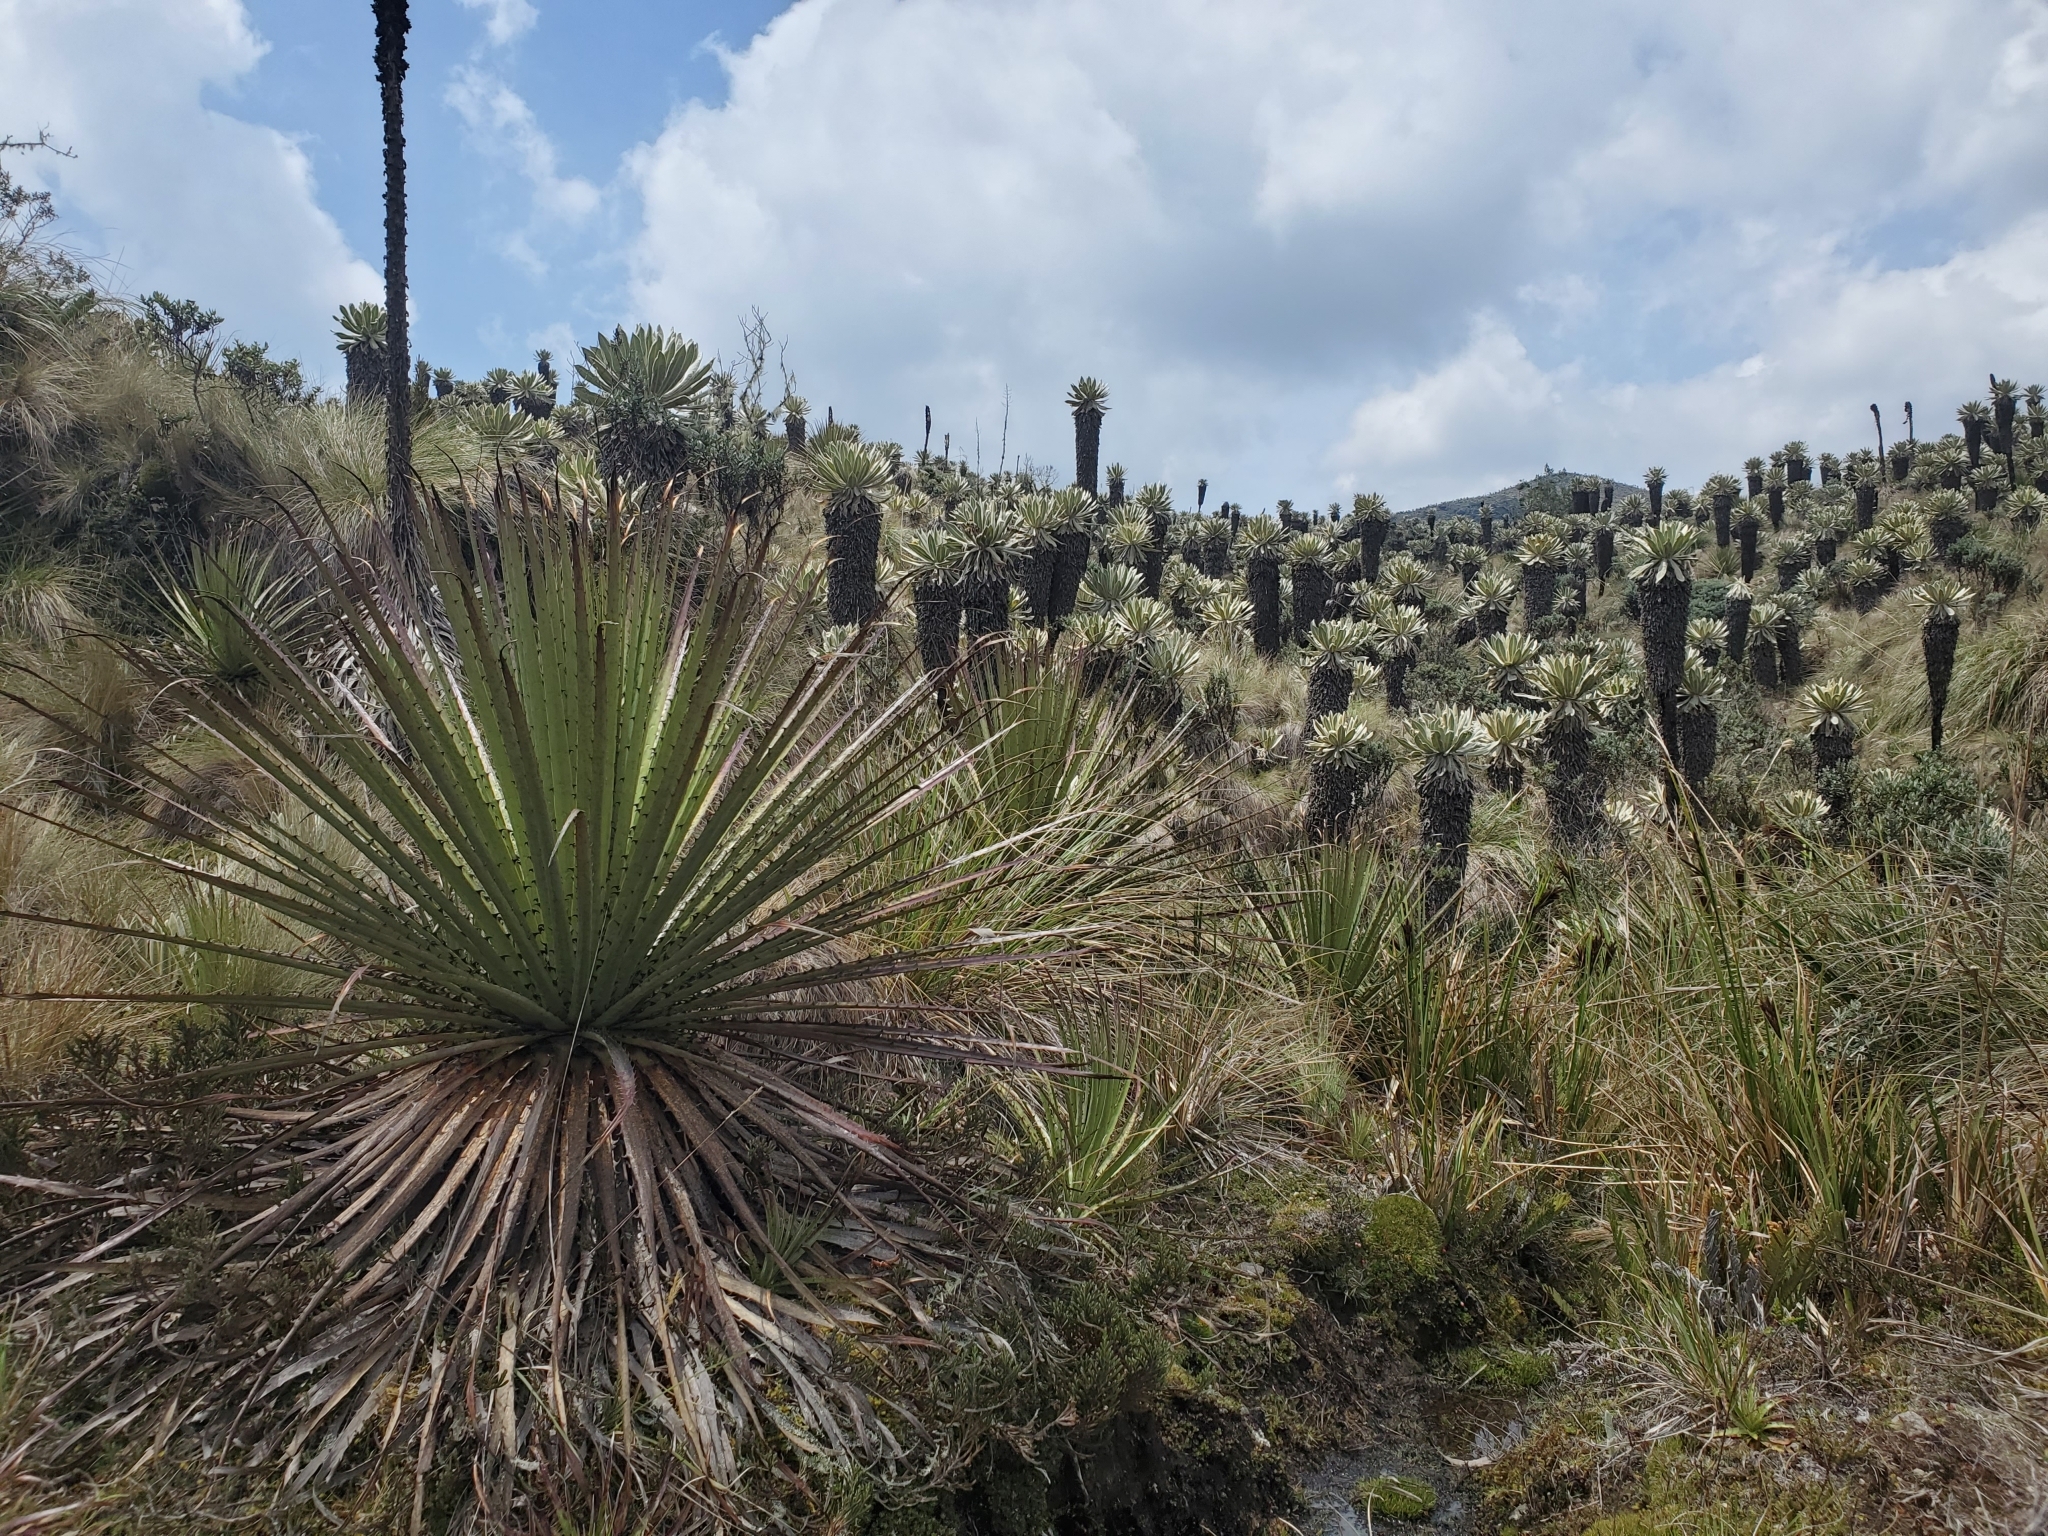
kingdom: Plantae
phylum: Tracheophyta
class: Liliopsida
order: Poales
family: Bromeliaceae
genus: Puya
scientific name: Puya hamata
